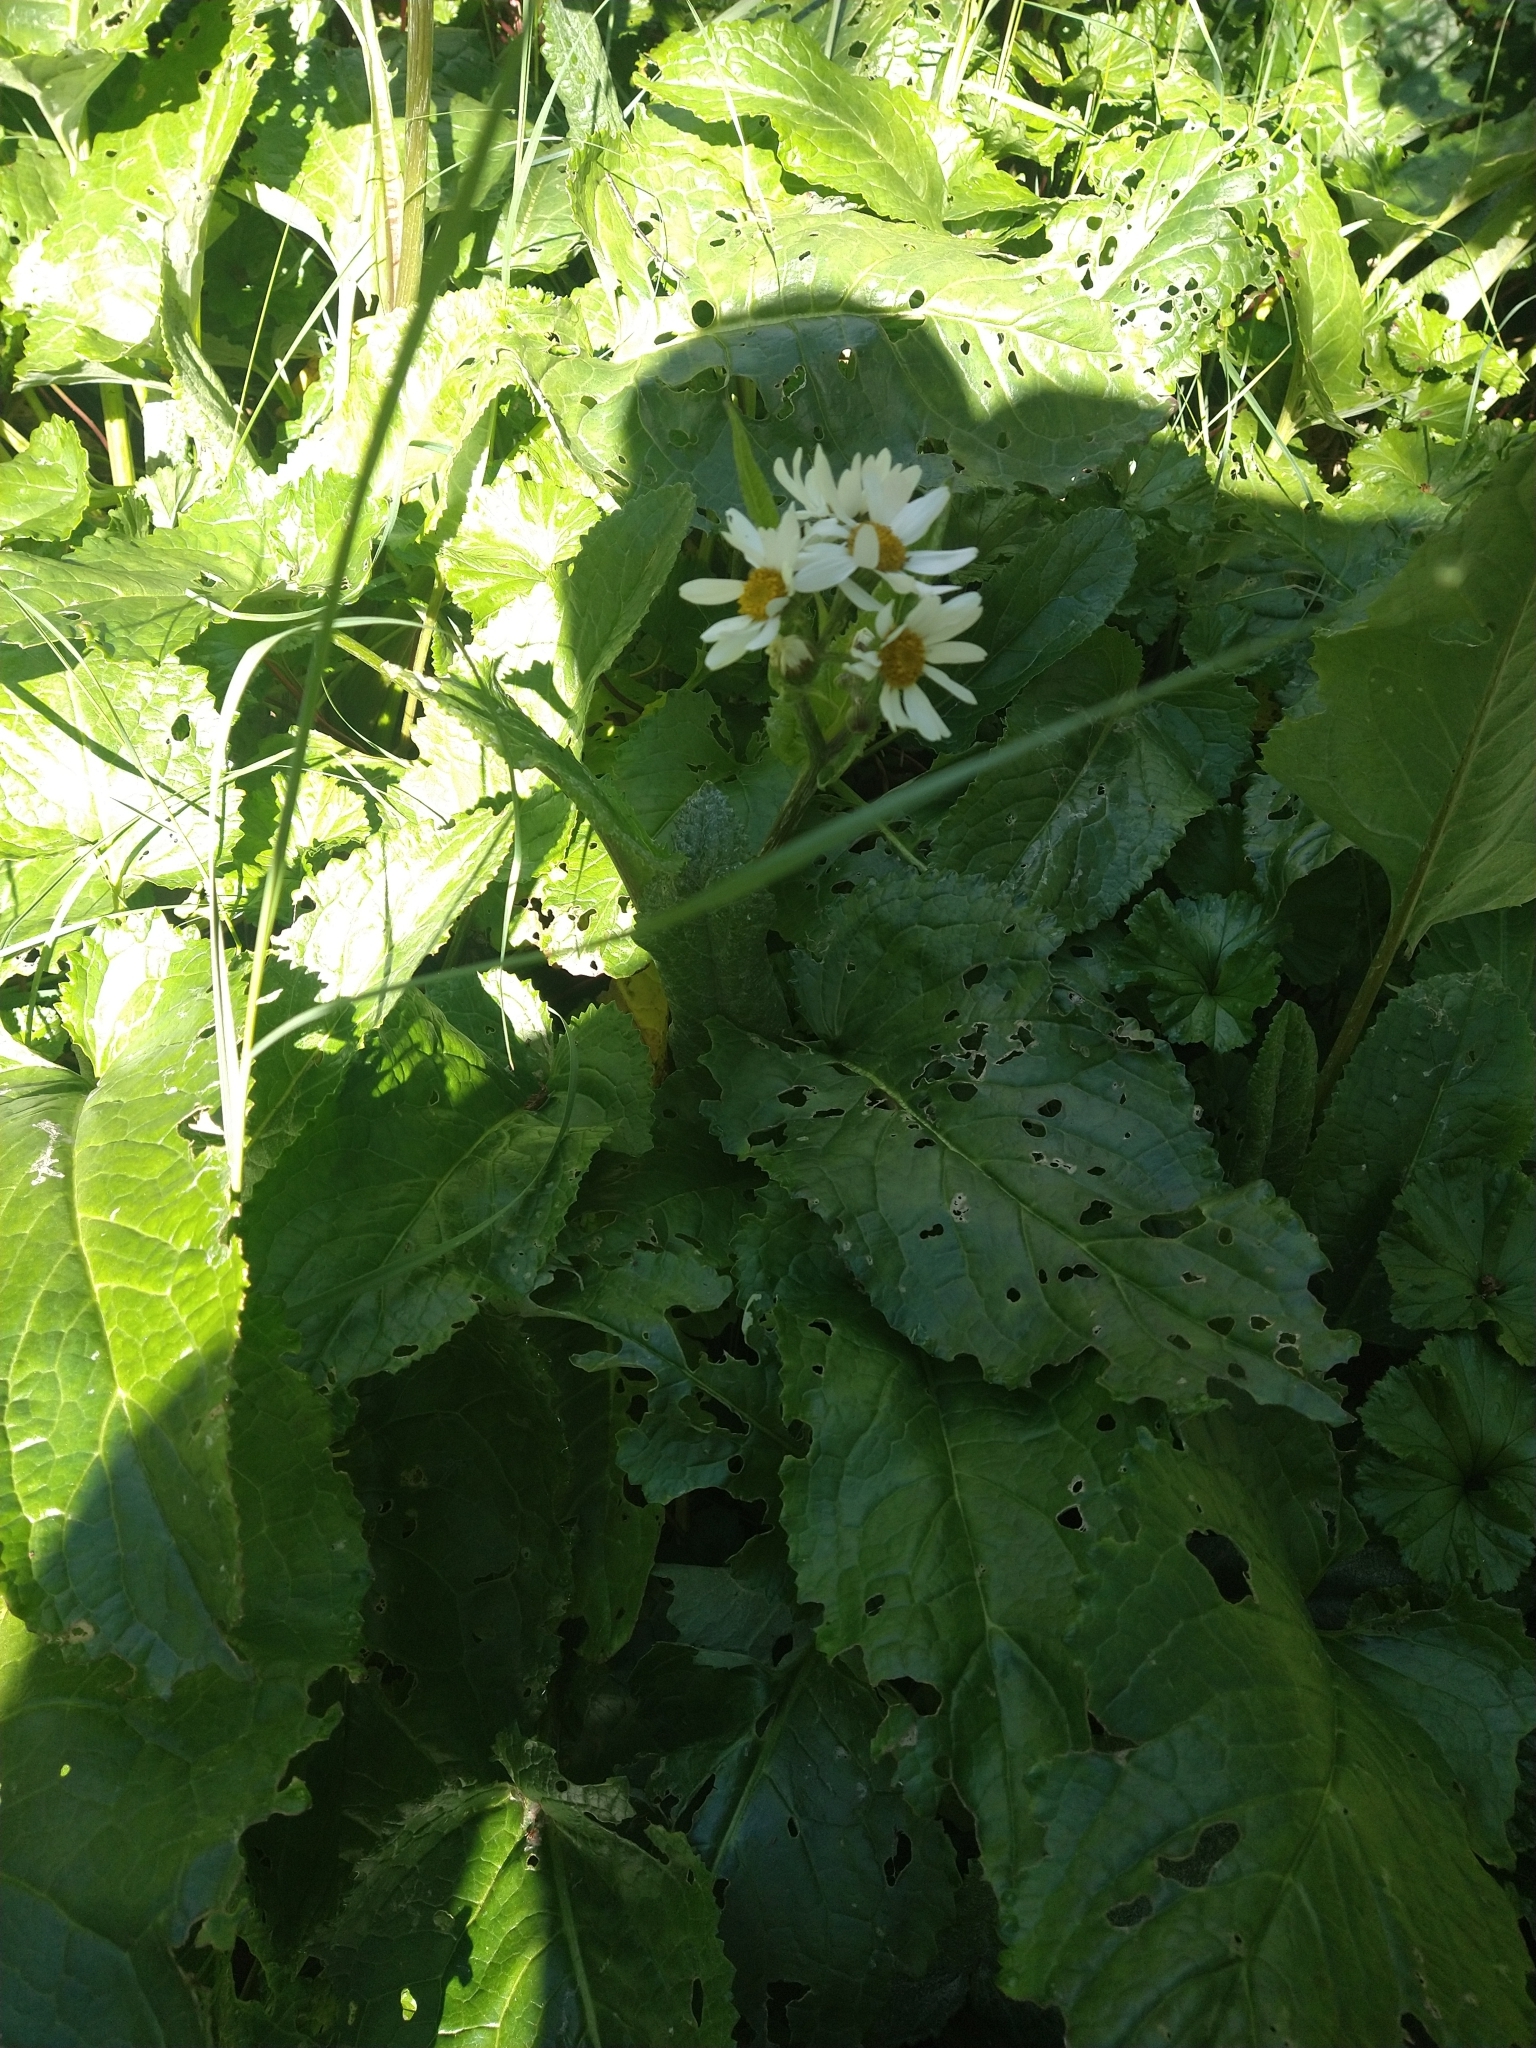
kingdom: Plantae
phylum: Tracheophyta
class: Magnoliopsida
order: Asterales
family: Asteraceae
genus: Senecio
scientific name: Senecio smithii
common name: Magellan ragwort
